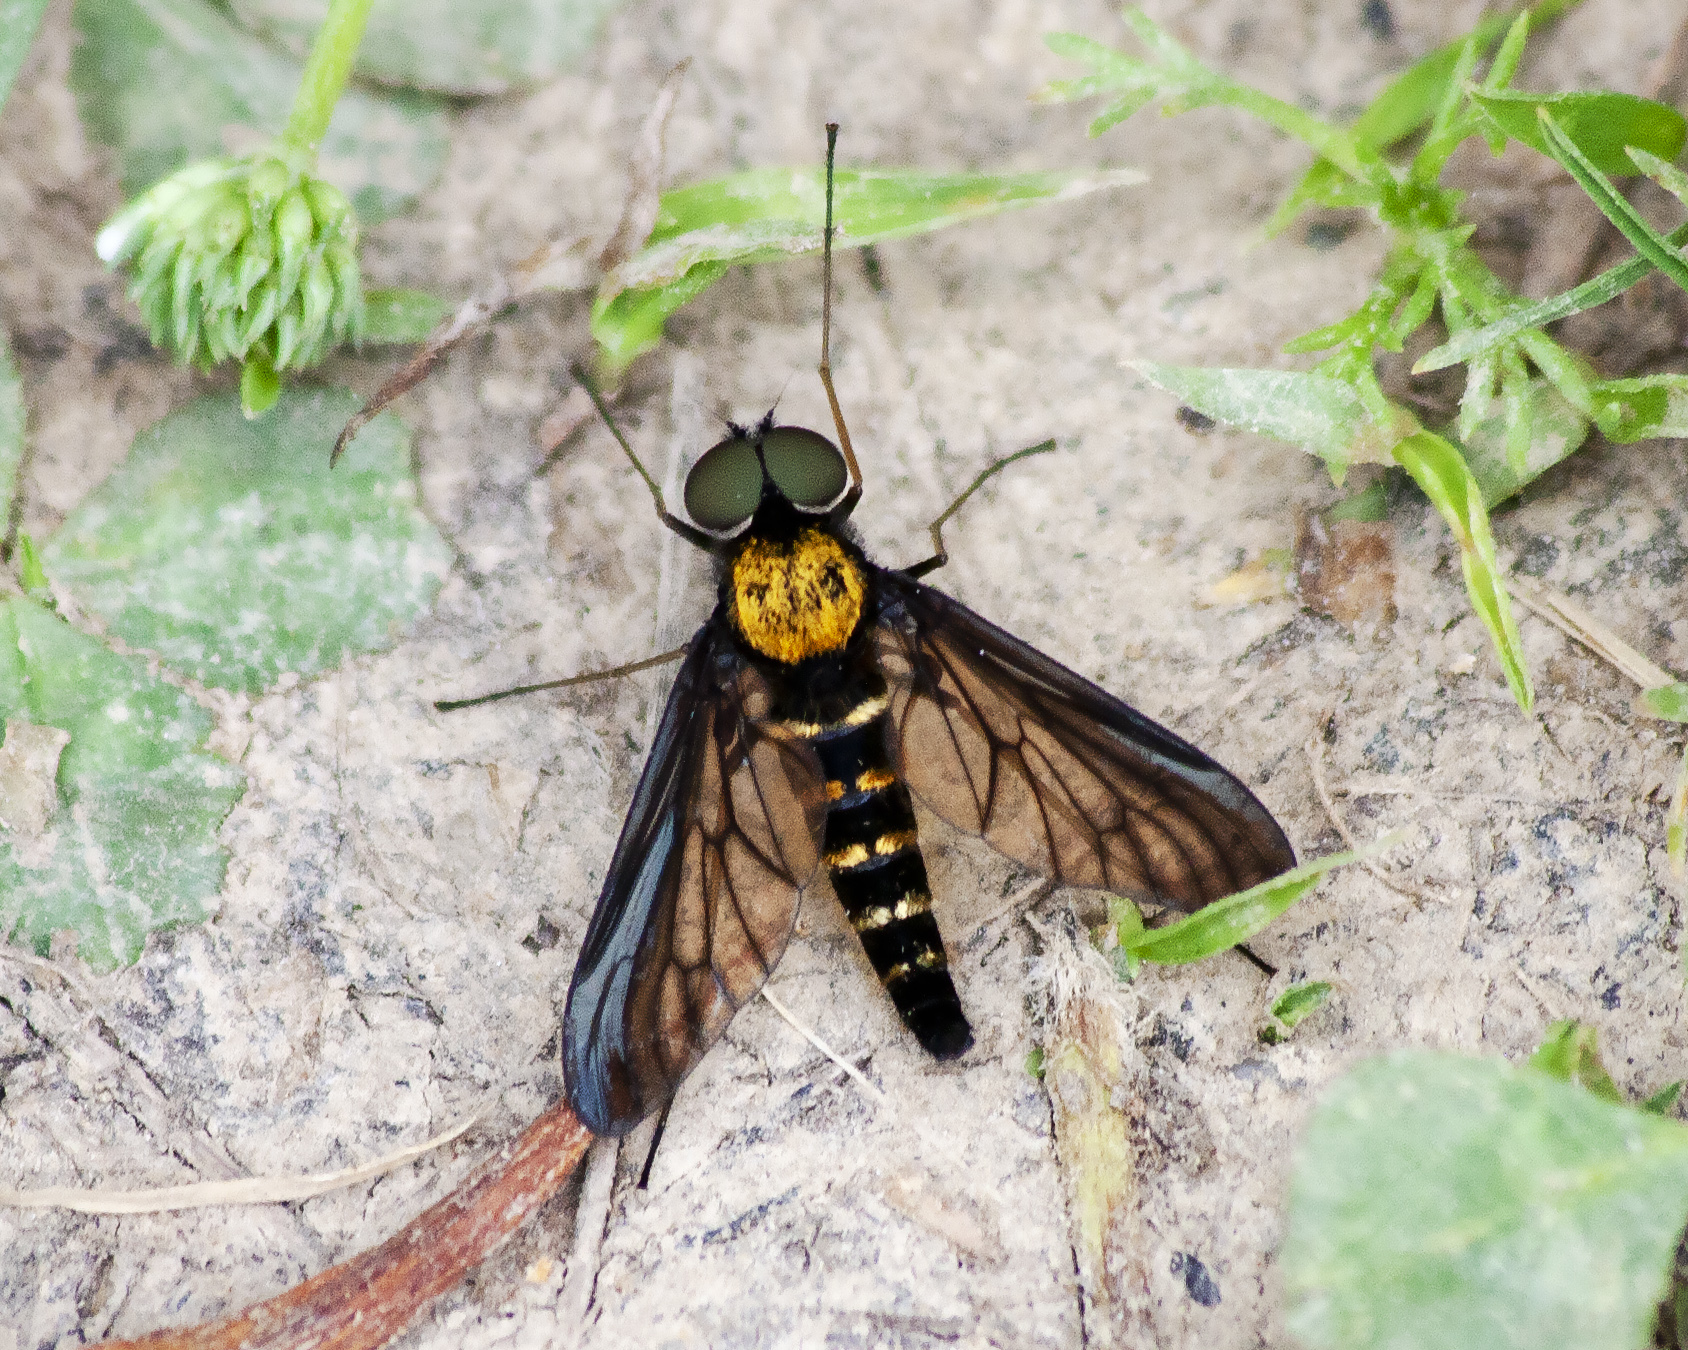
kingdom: Animalia
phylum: Arthropoda
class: Insecta
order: Diptera
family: Rhagionidae
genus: Chrysopilus
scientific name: Chrysopilus thoracicus
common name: Golden-backed snipe fly
